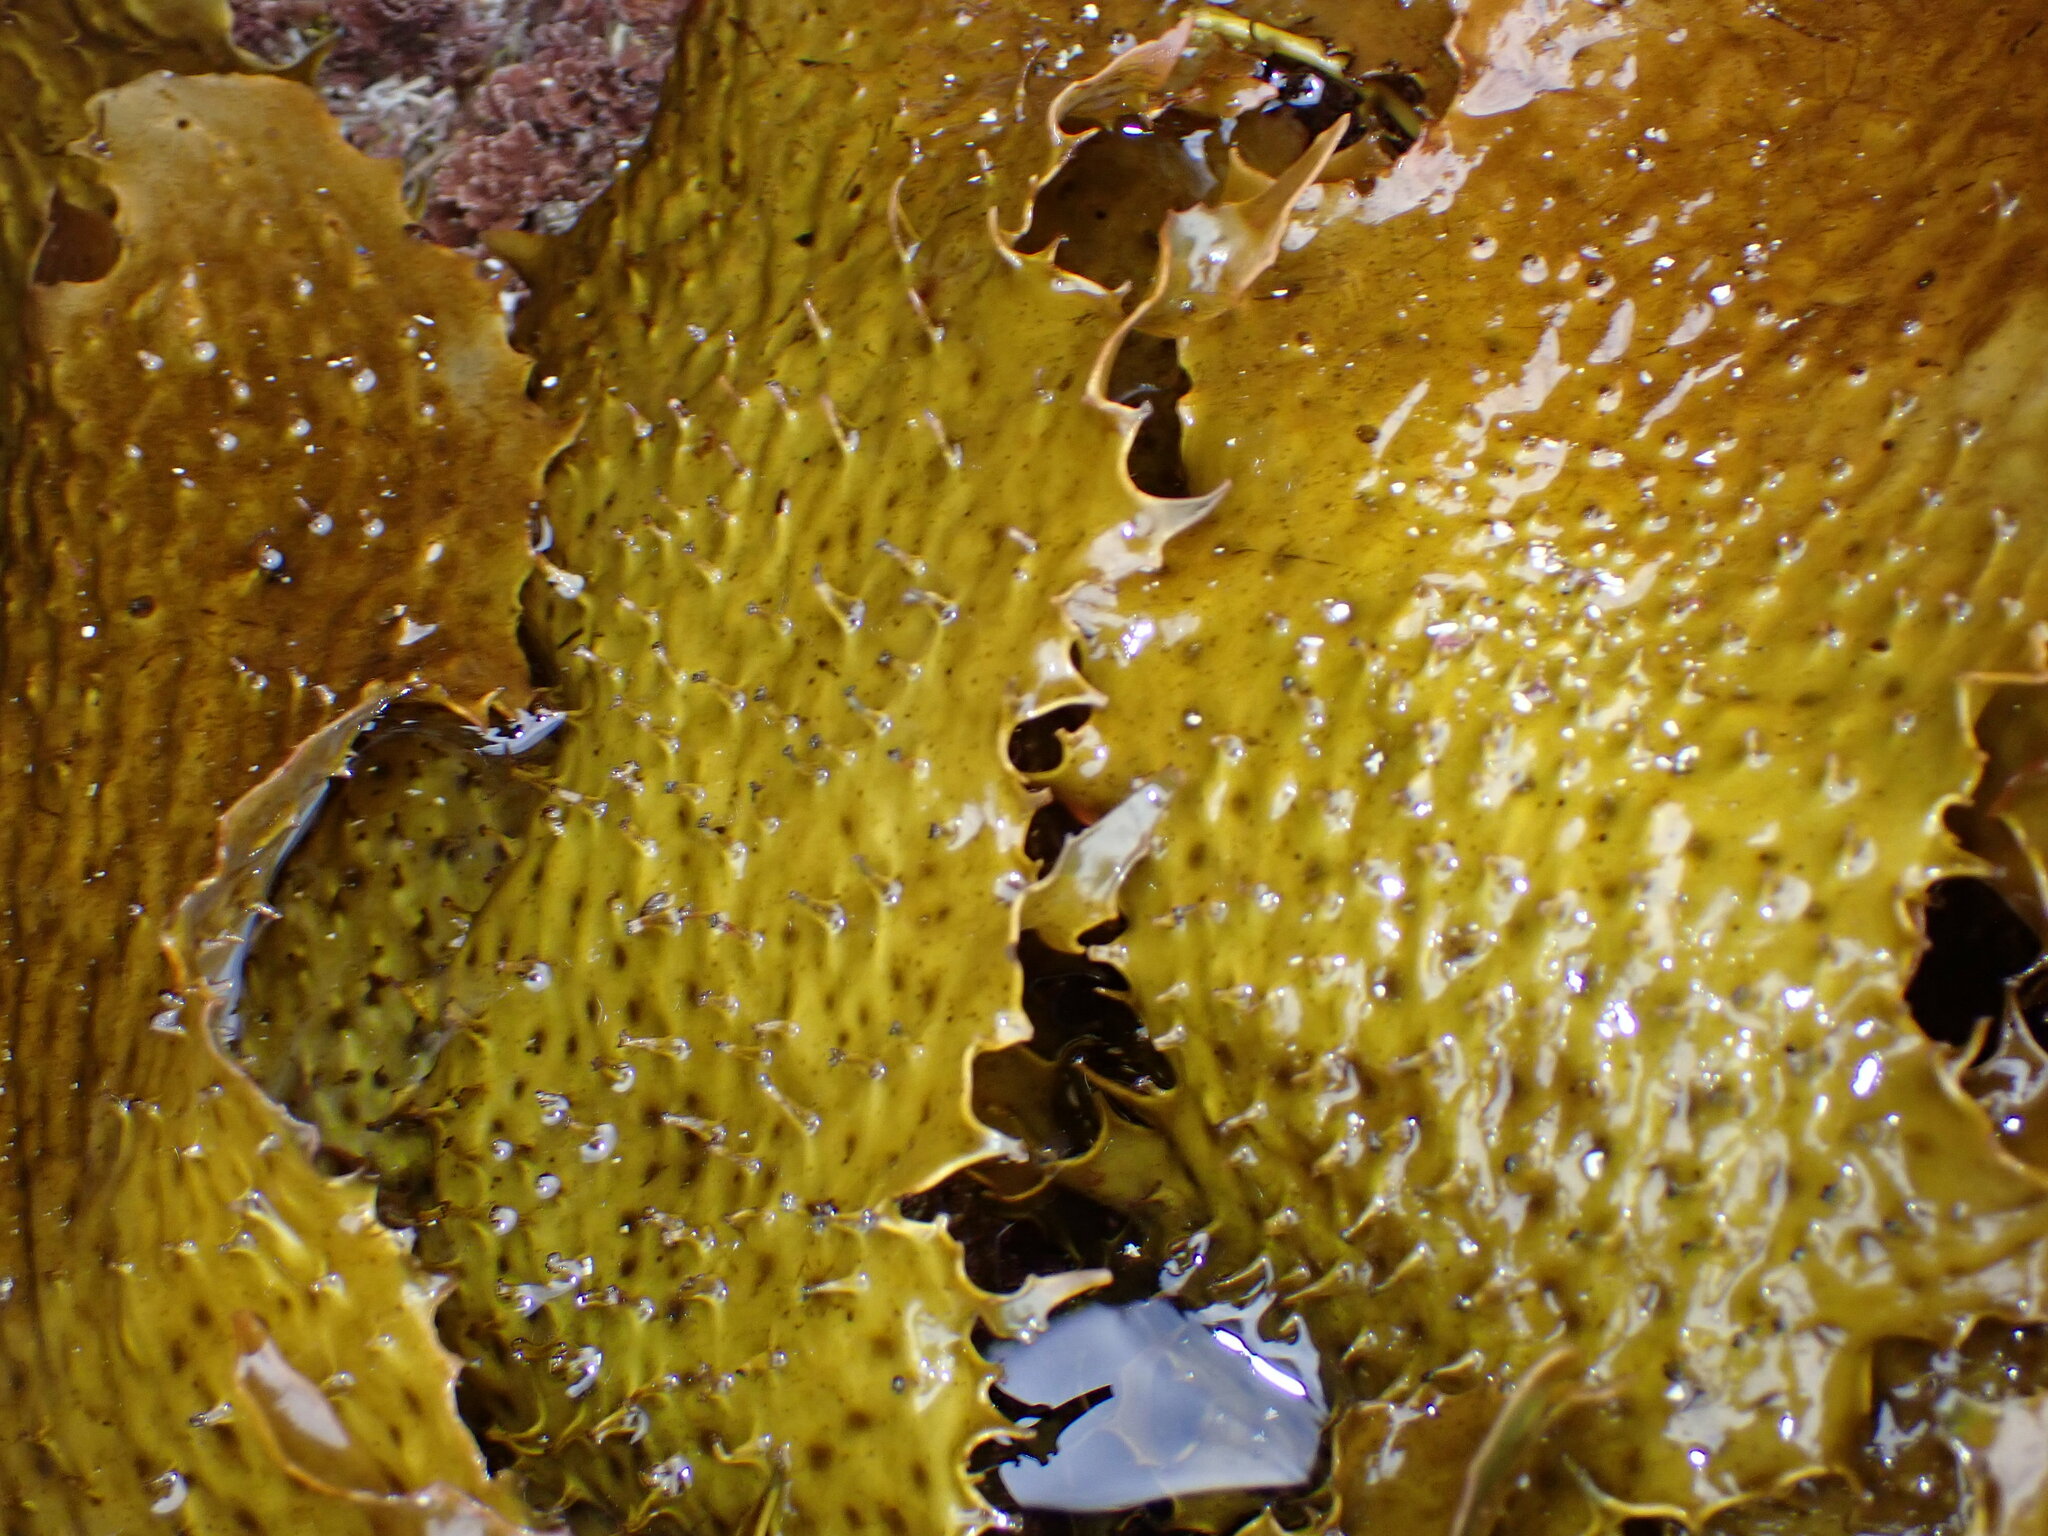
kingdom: Chromista
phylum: Ochrophyta
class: Phaeophyceae
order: Laminariales
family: Lessoniaceae
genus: Ecklonia
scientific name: Ecklonia radiata
